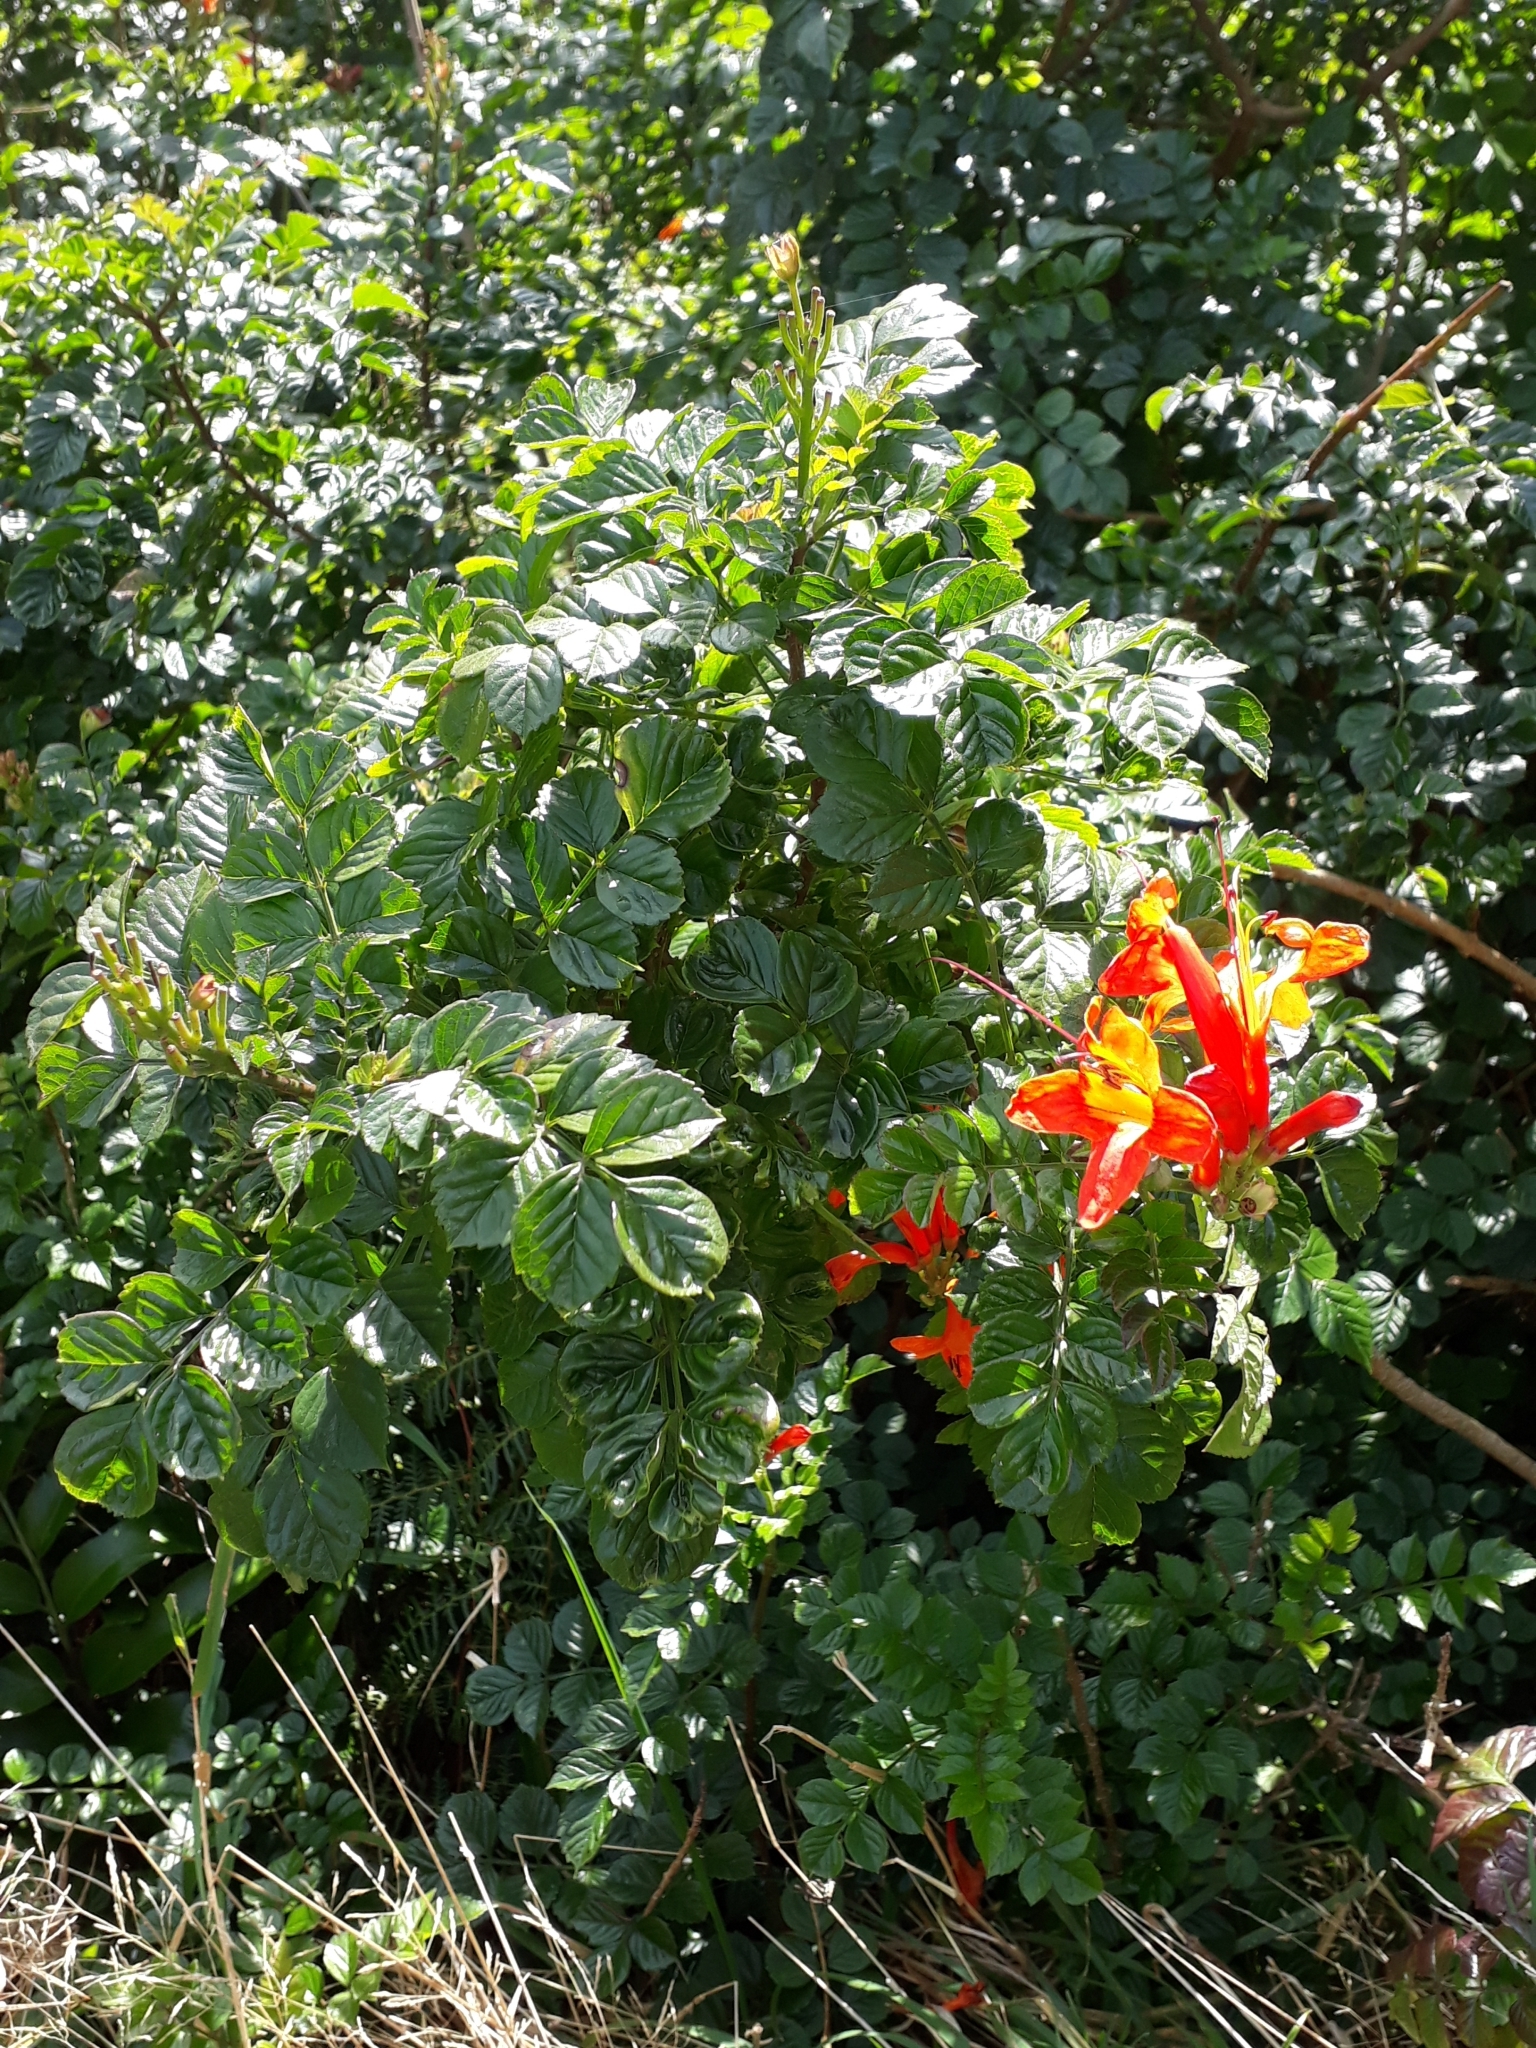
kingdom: Plantae
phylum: Tracheophyta
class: Magnoliopsida
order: Lamiales
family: Bignoniaceae
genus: Tecomaria
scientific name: Tecomaria capensis
